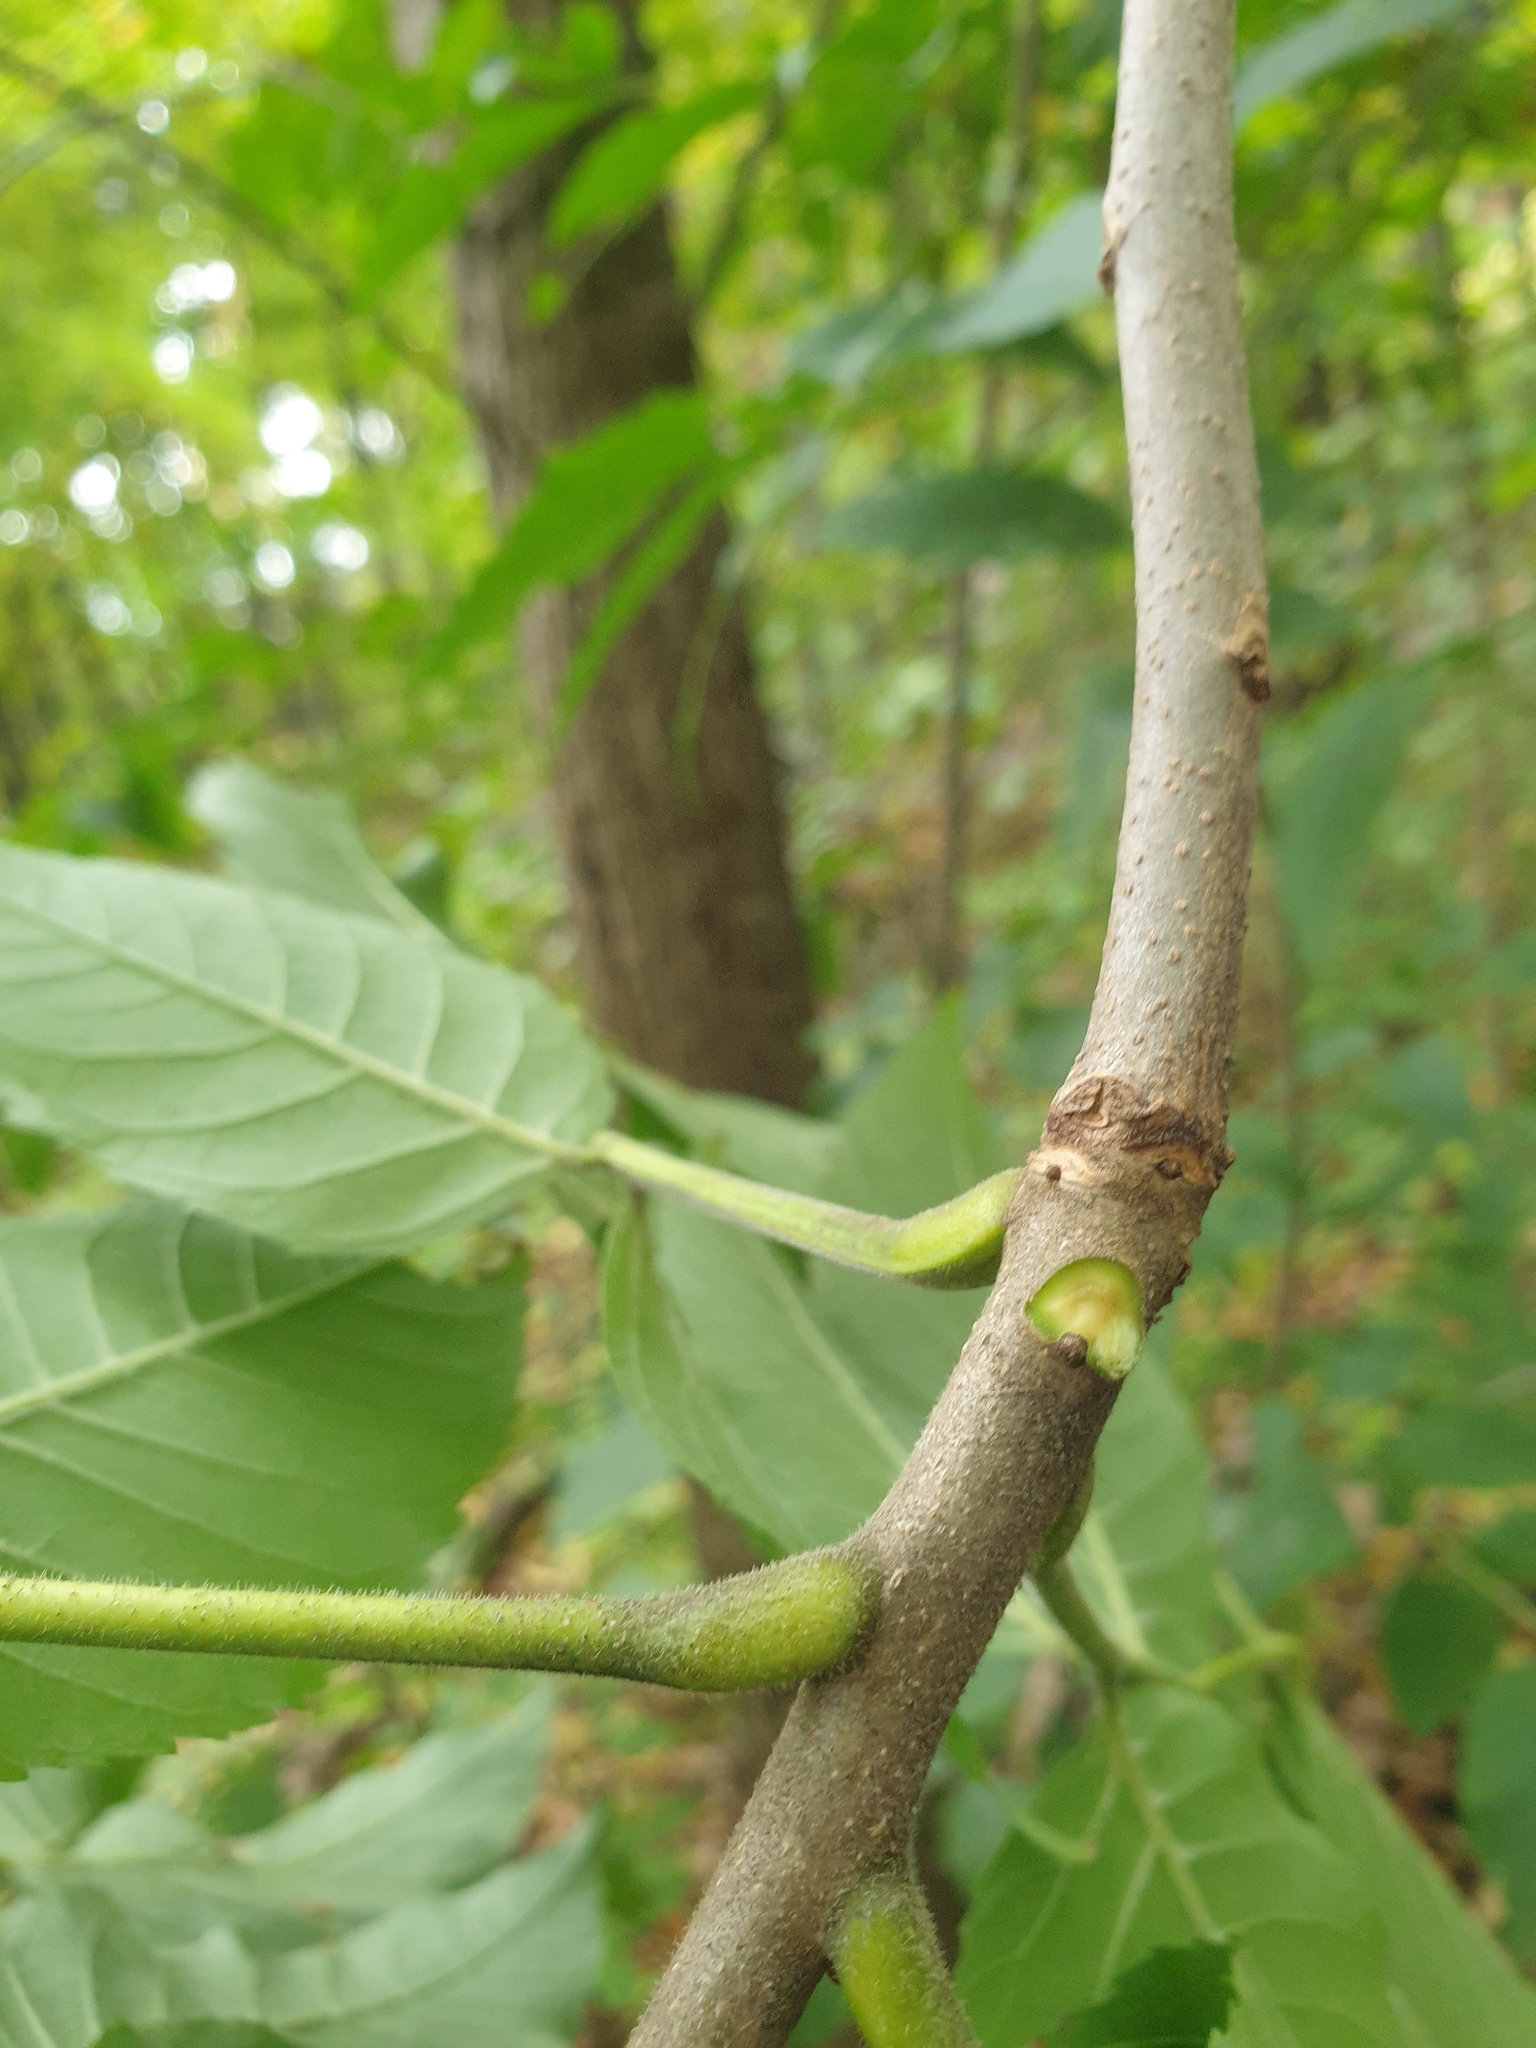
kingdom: Plantae
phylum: Tracheophyta
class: Magnoliopsida
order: Lamiales
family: Oleaceae
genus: Fraxinus
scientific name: Fraxinus pennsylvanica
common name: Green ash
